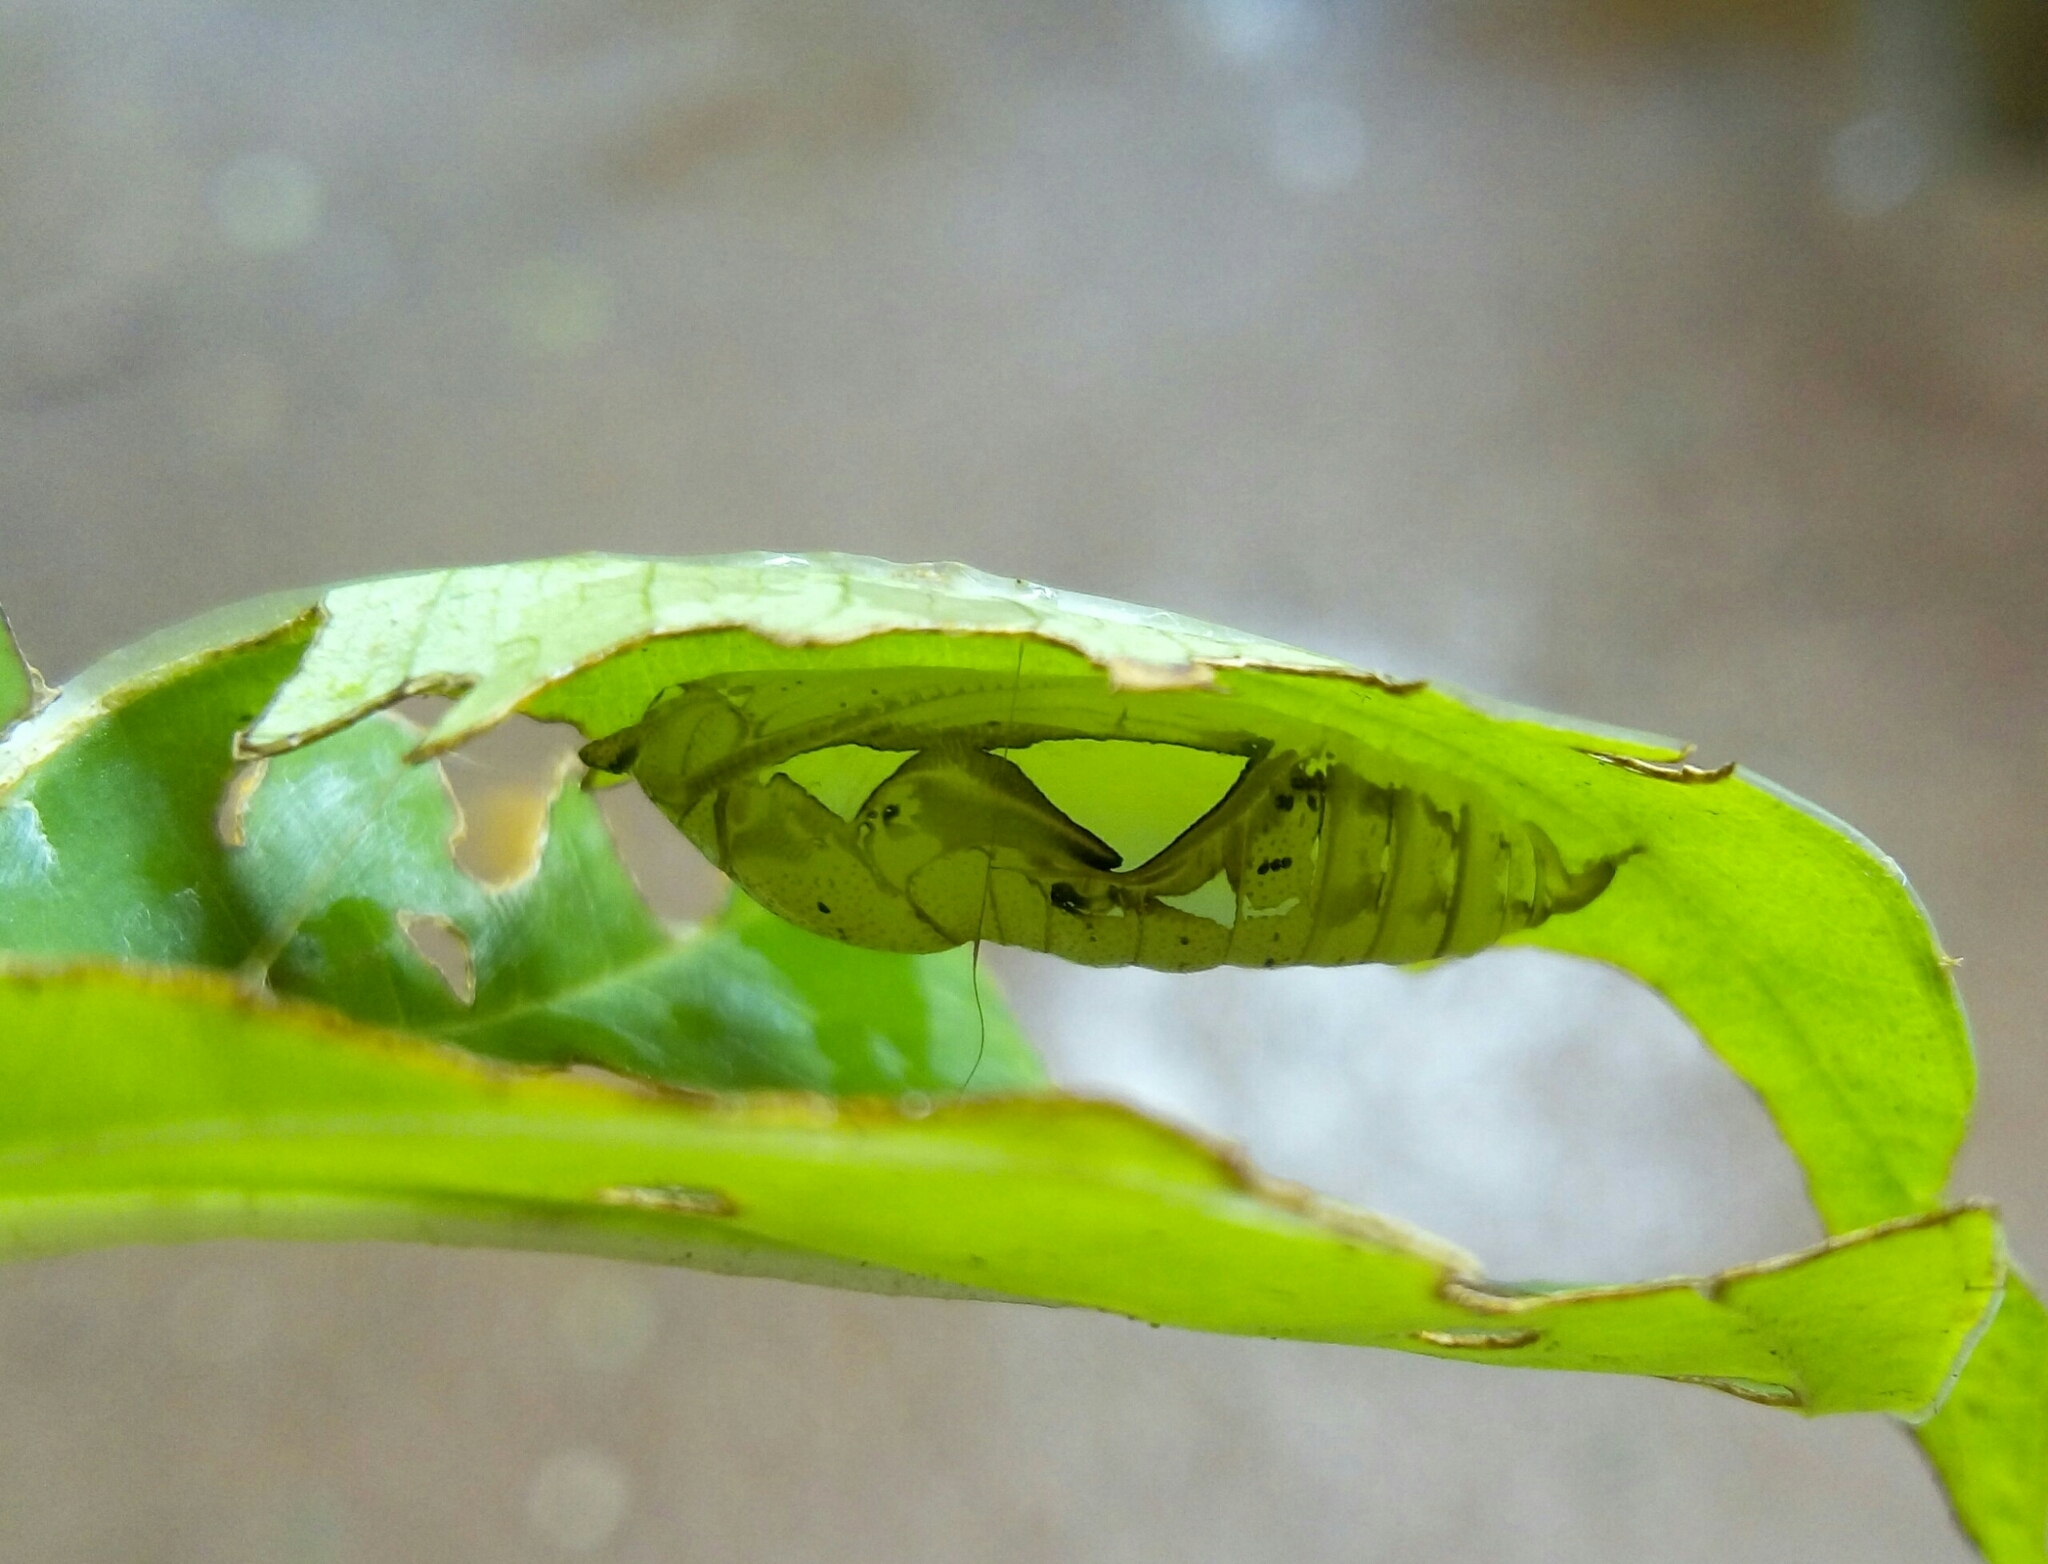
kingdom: Animalia
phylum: Arthropoda
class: Insecta
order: Lepidoptera
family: Hesperiidae
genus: Tagiades
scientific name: Tagiades litigiosa
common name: Water snow flat
